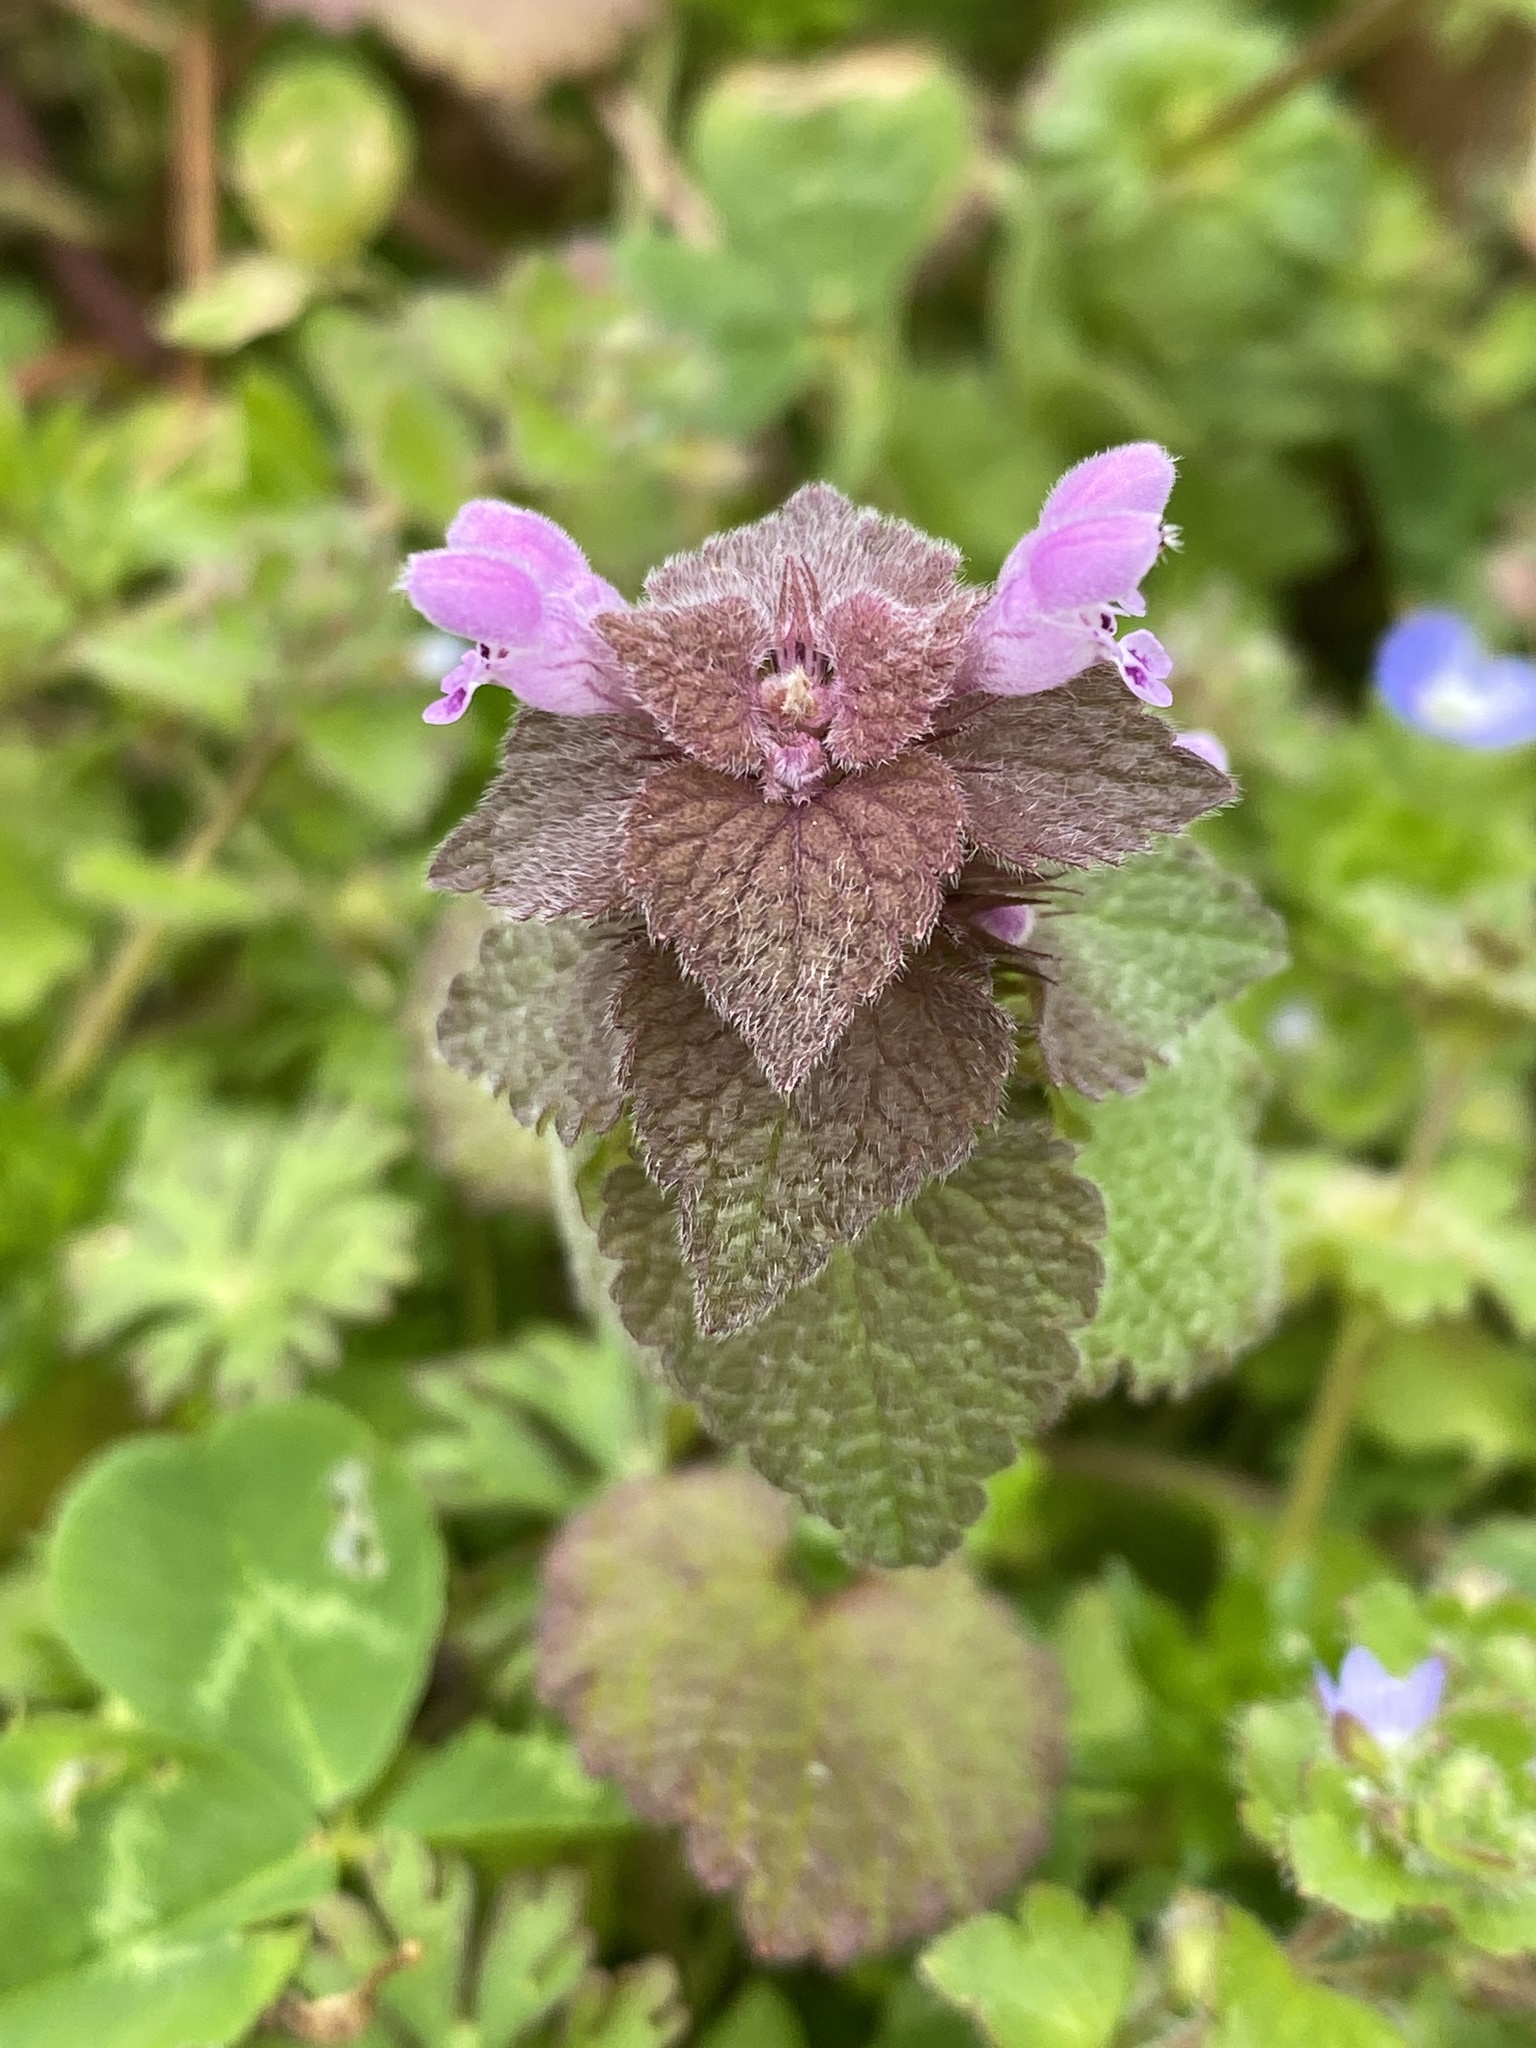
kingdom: Plantae
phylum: Tracheophyta
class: Magnoliopsida
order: Lamiales
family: Lamiaceae
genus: Lamium
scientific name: Lamium purpureum
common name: Red dead-nettle
